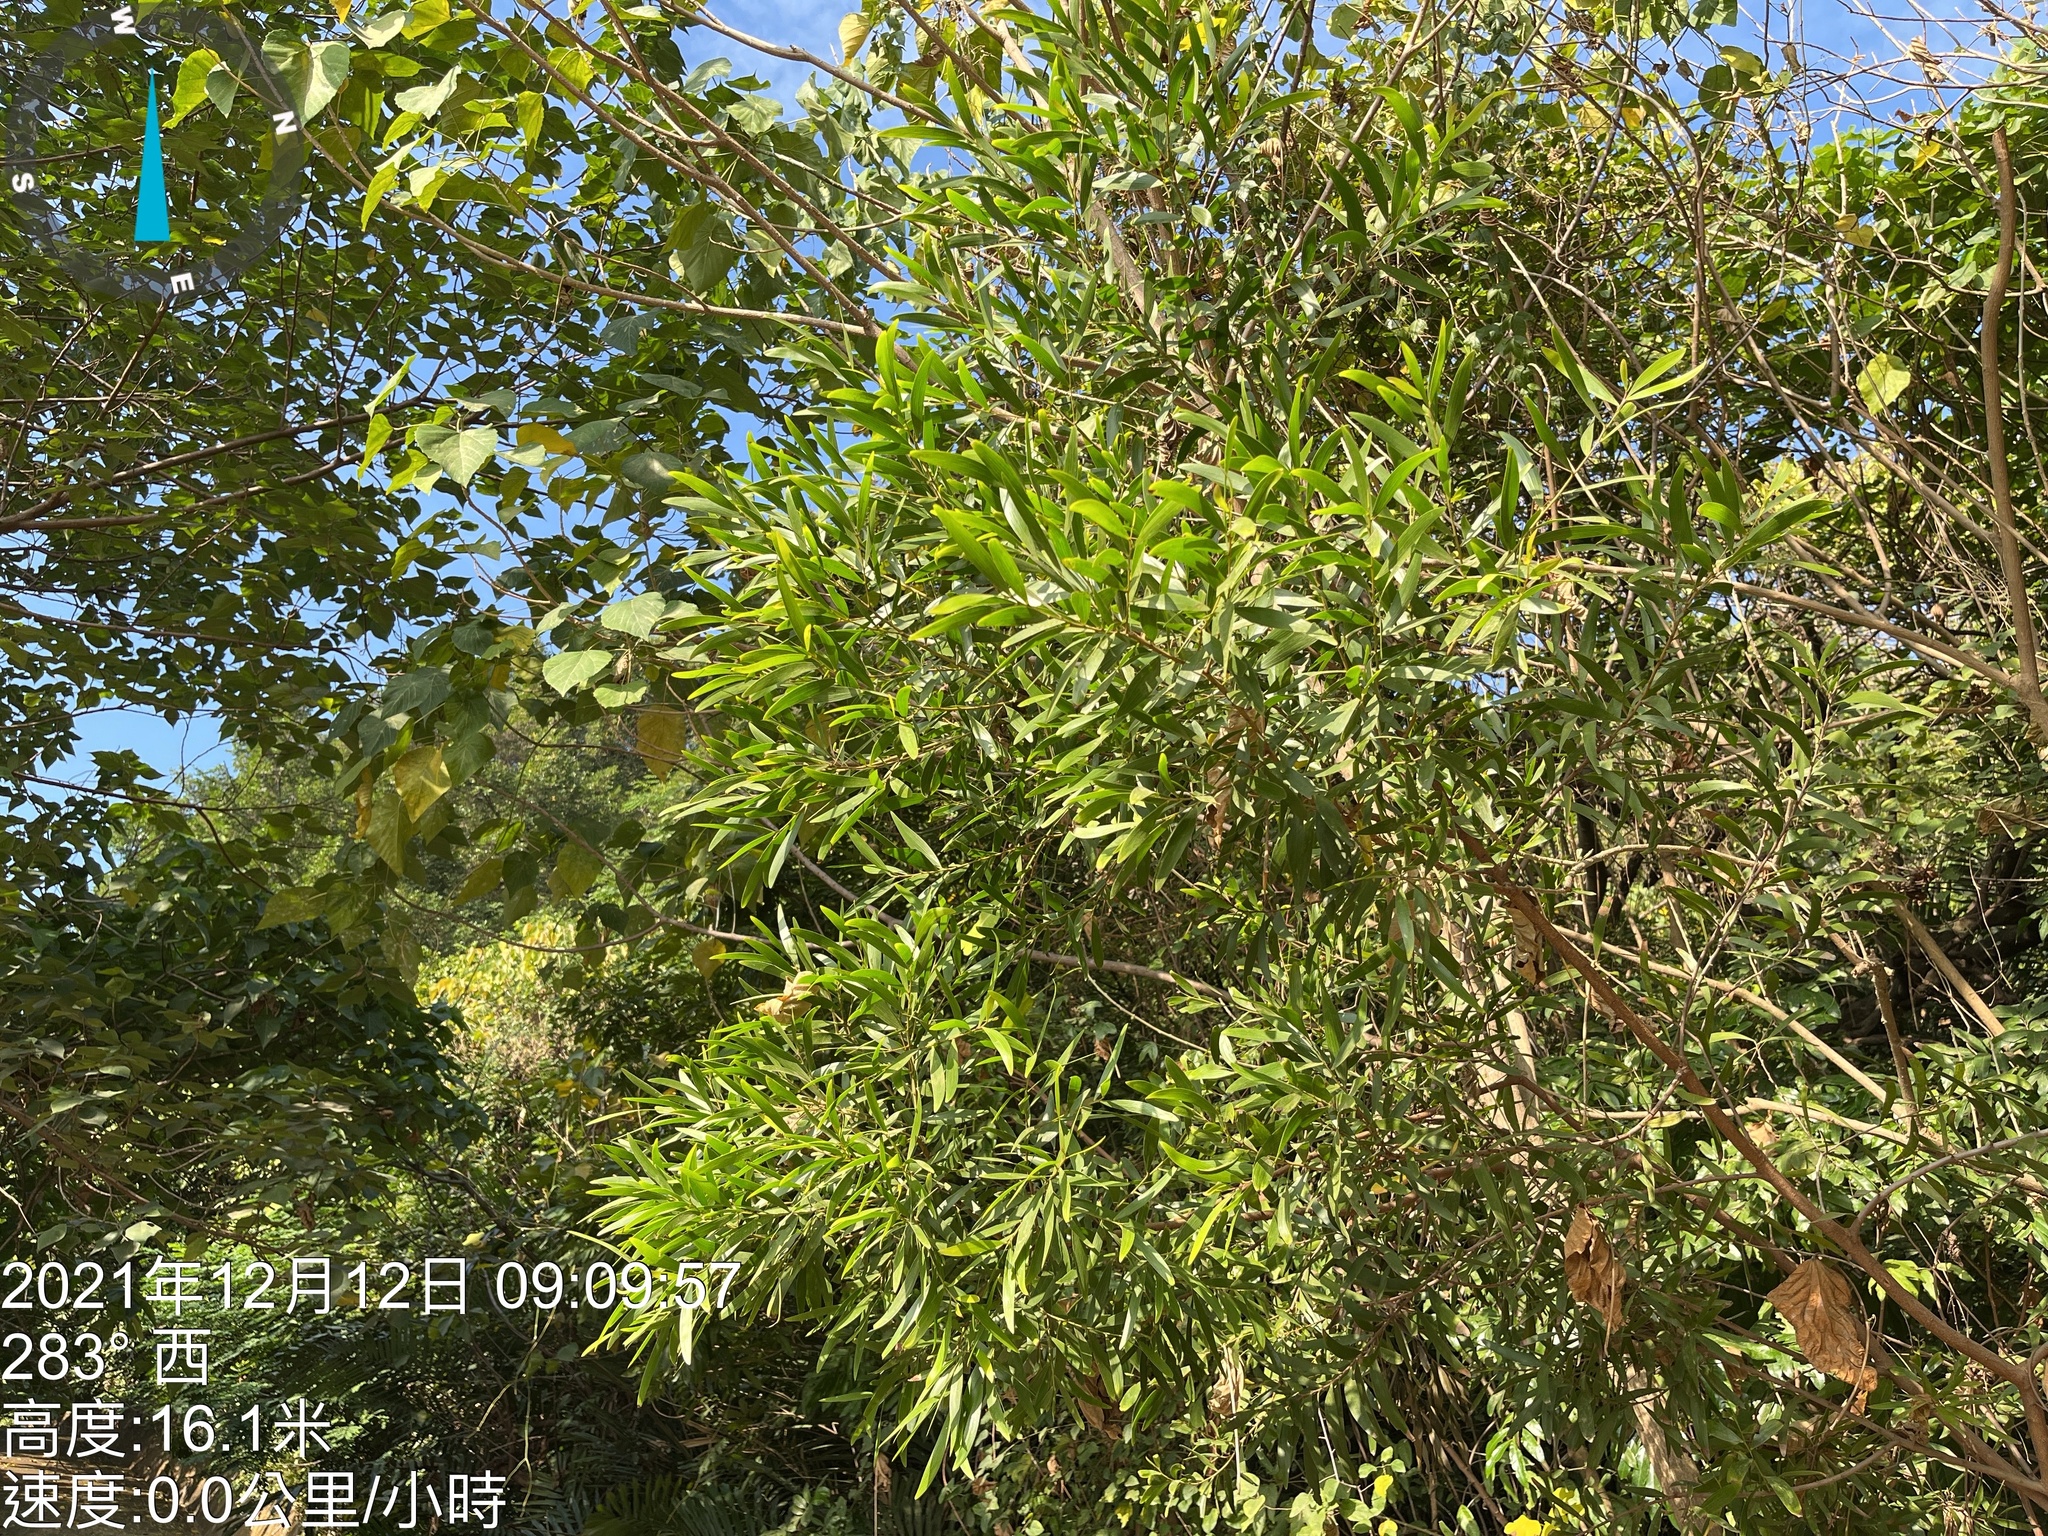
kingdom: Plantae
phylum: Tracheophyta
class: Magnoliopsida
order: Fabales
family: Fabaceae
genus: Acacia
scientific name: Acacia auriculiformis
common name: Earleaf acacia
